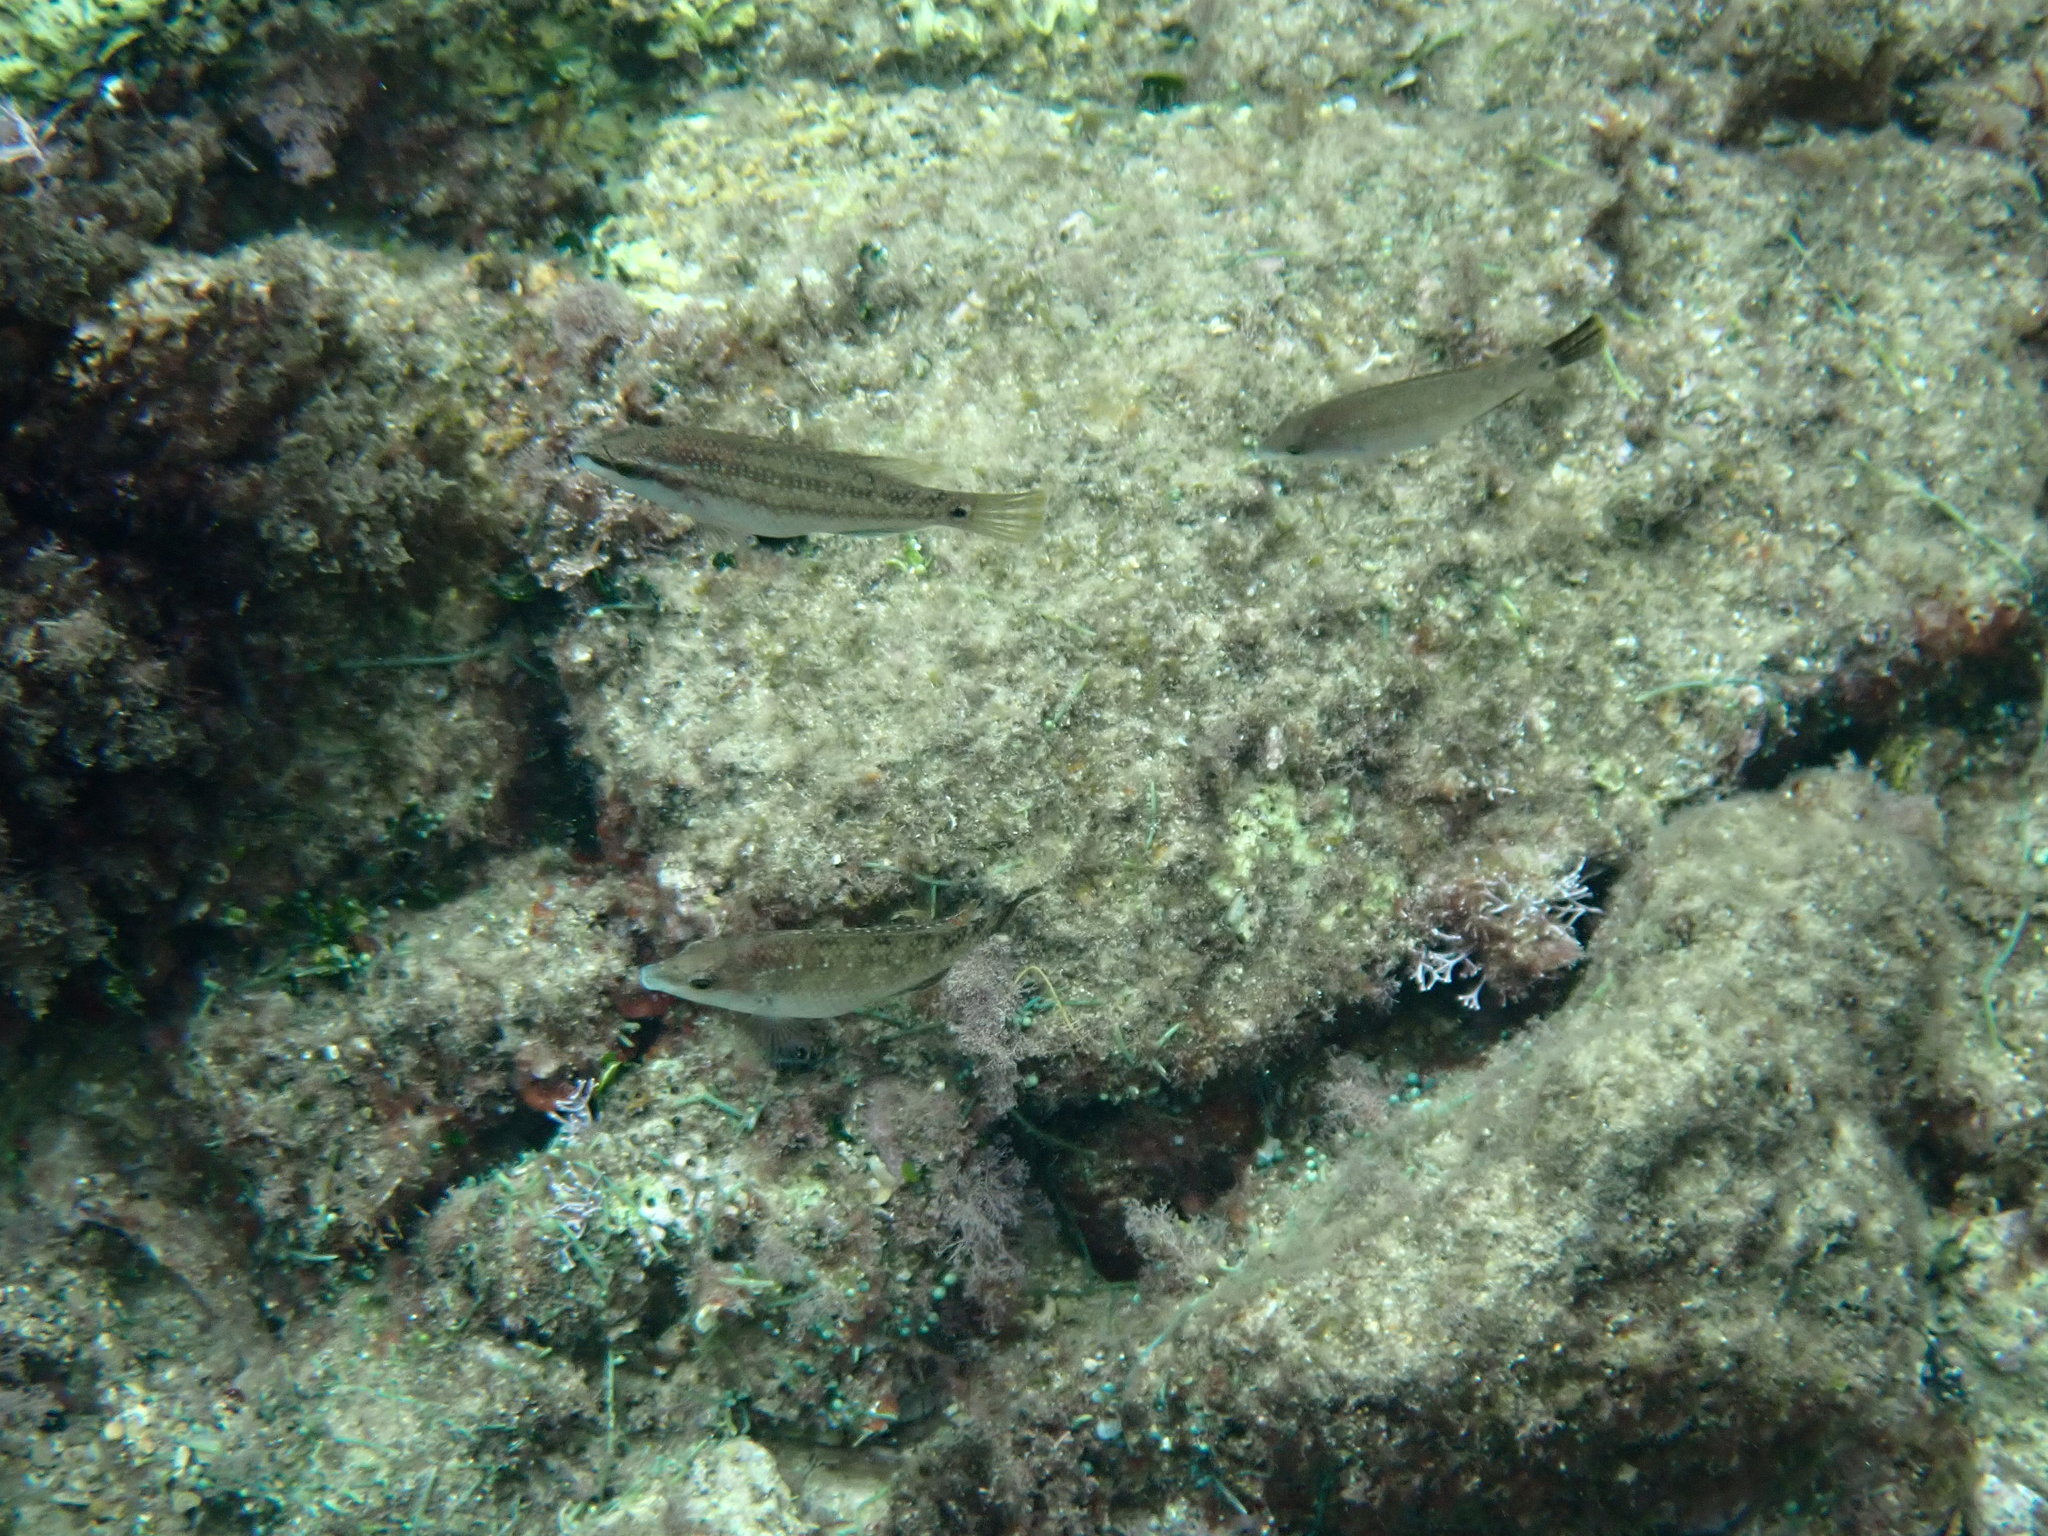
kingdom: Animalia
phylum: Chordata
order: Perciformes
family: Labridae
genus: Symphodus
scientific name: Symphodus tinca
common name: Peacock wrasse
